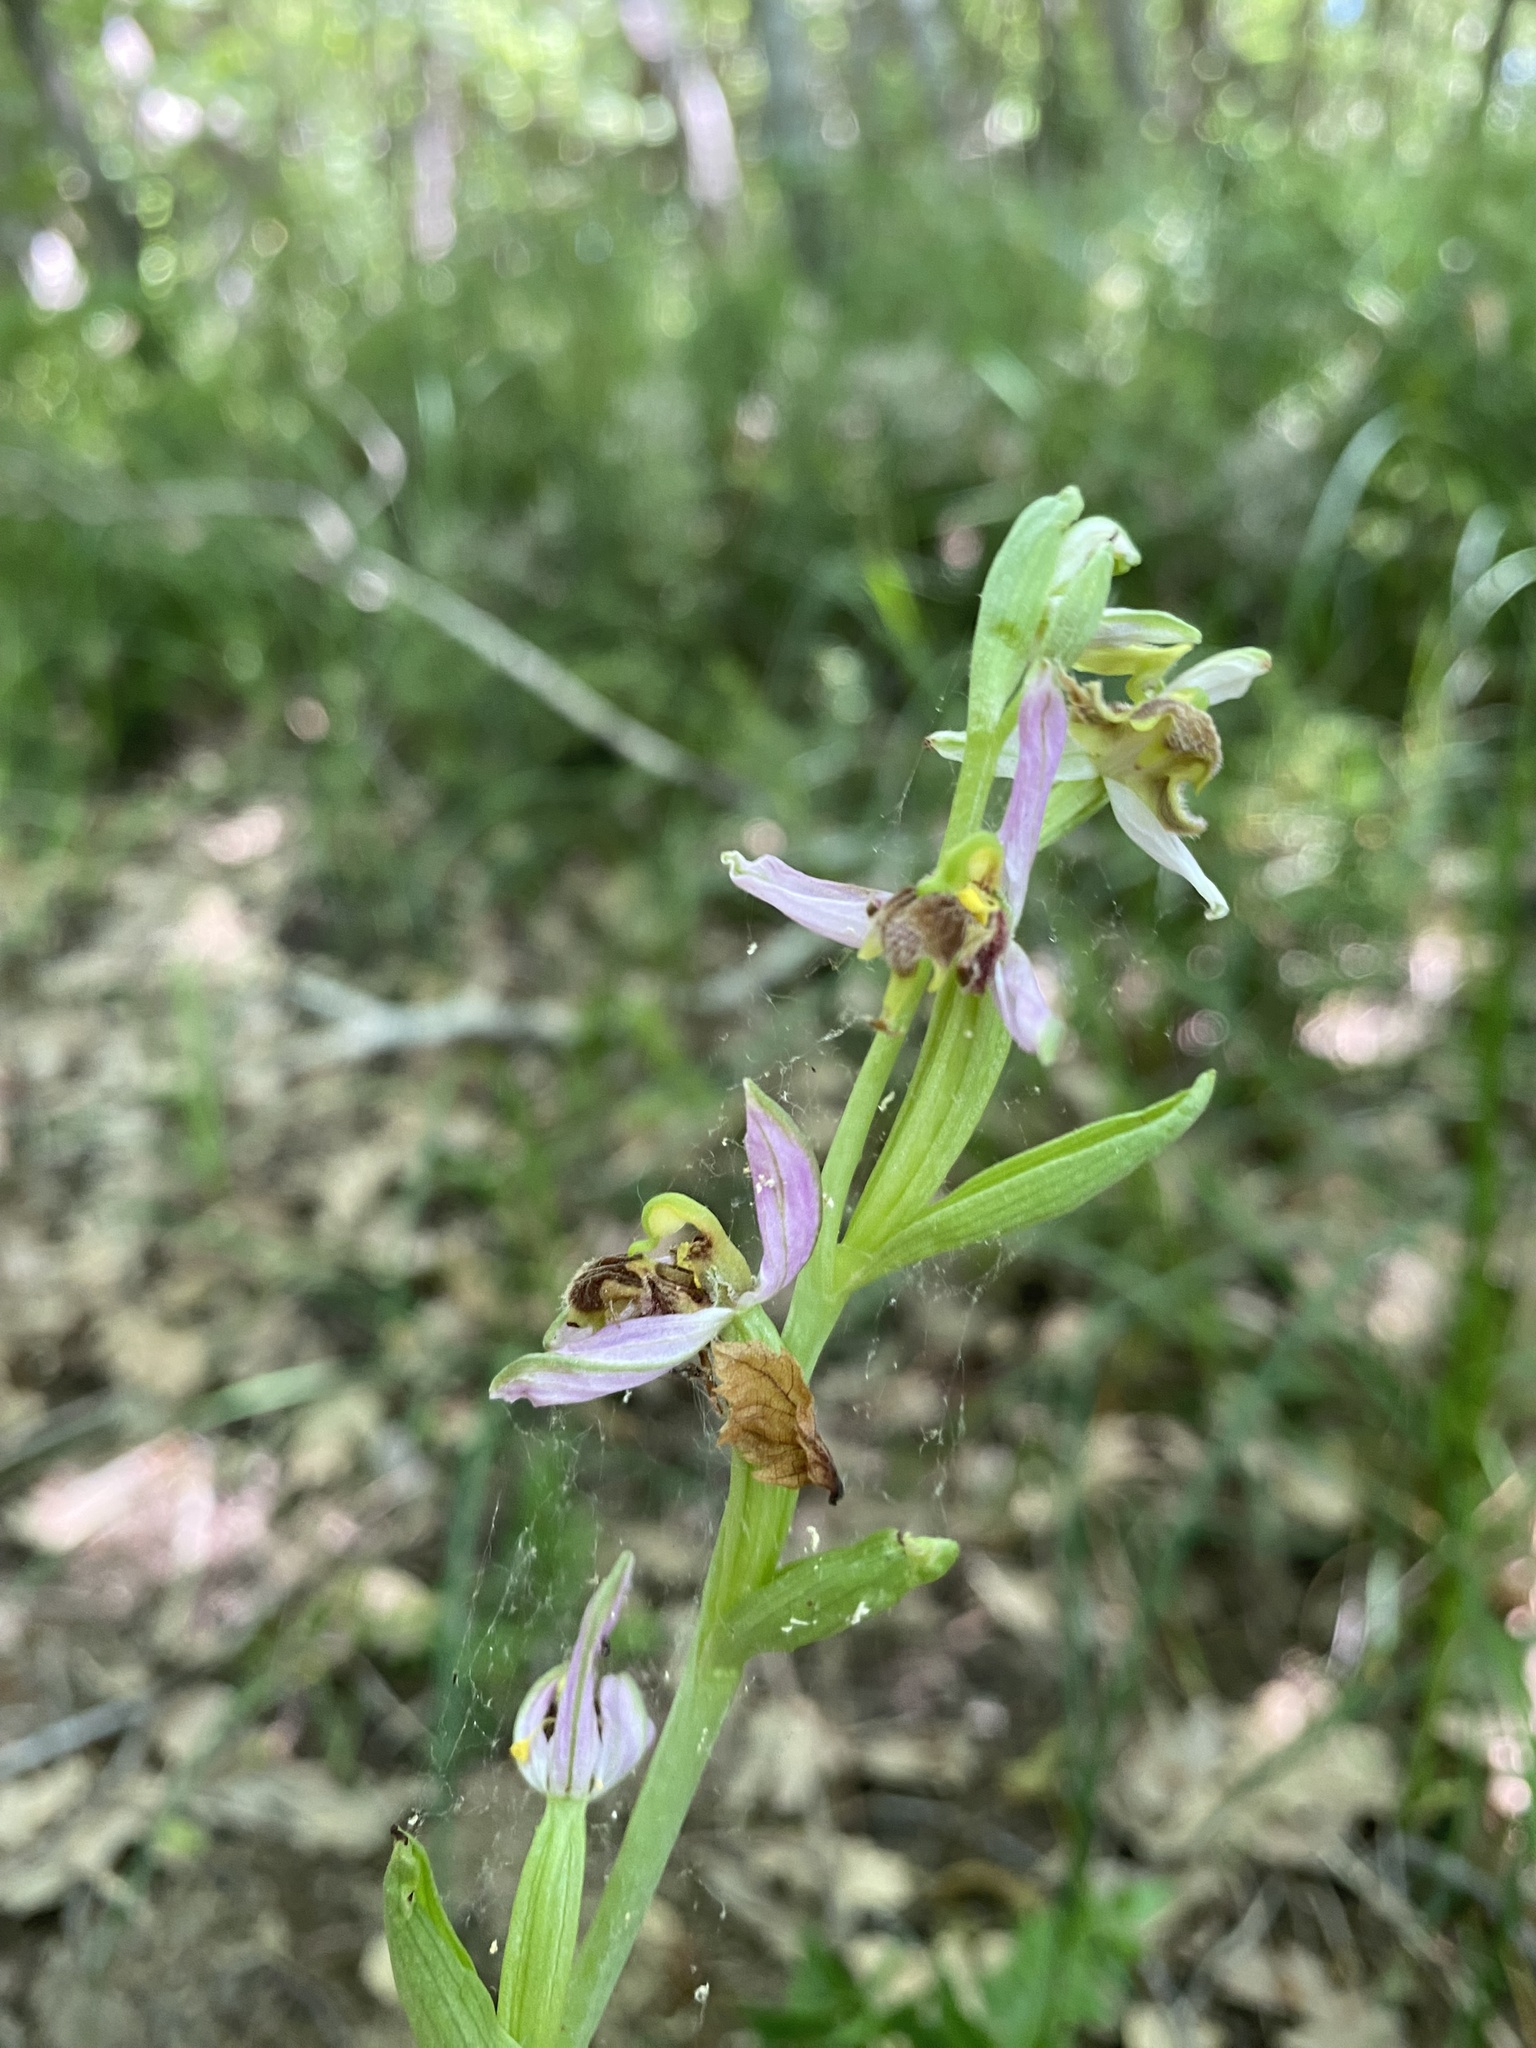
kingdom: Plantae
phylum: Tracheophyta
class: Liliopsida
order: Asparagales
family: Orchidaceae
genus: Ophrys
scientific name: Ophrys apifera
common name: Bee orchid
